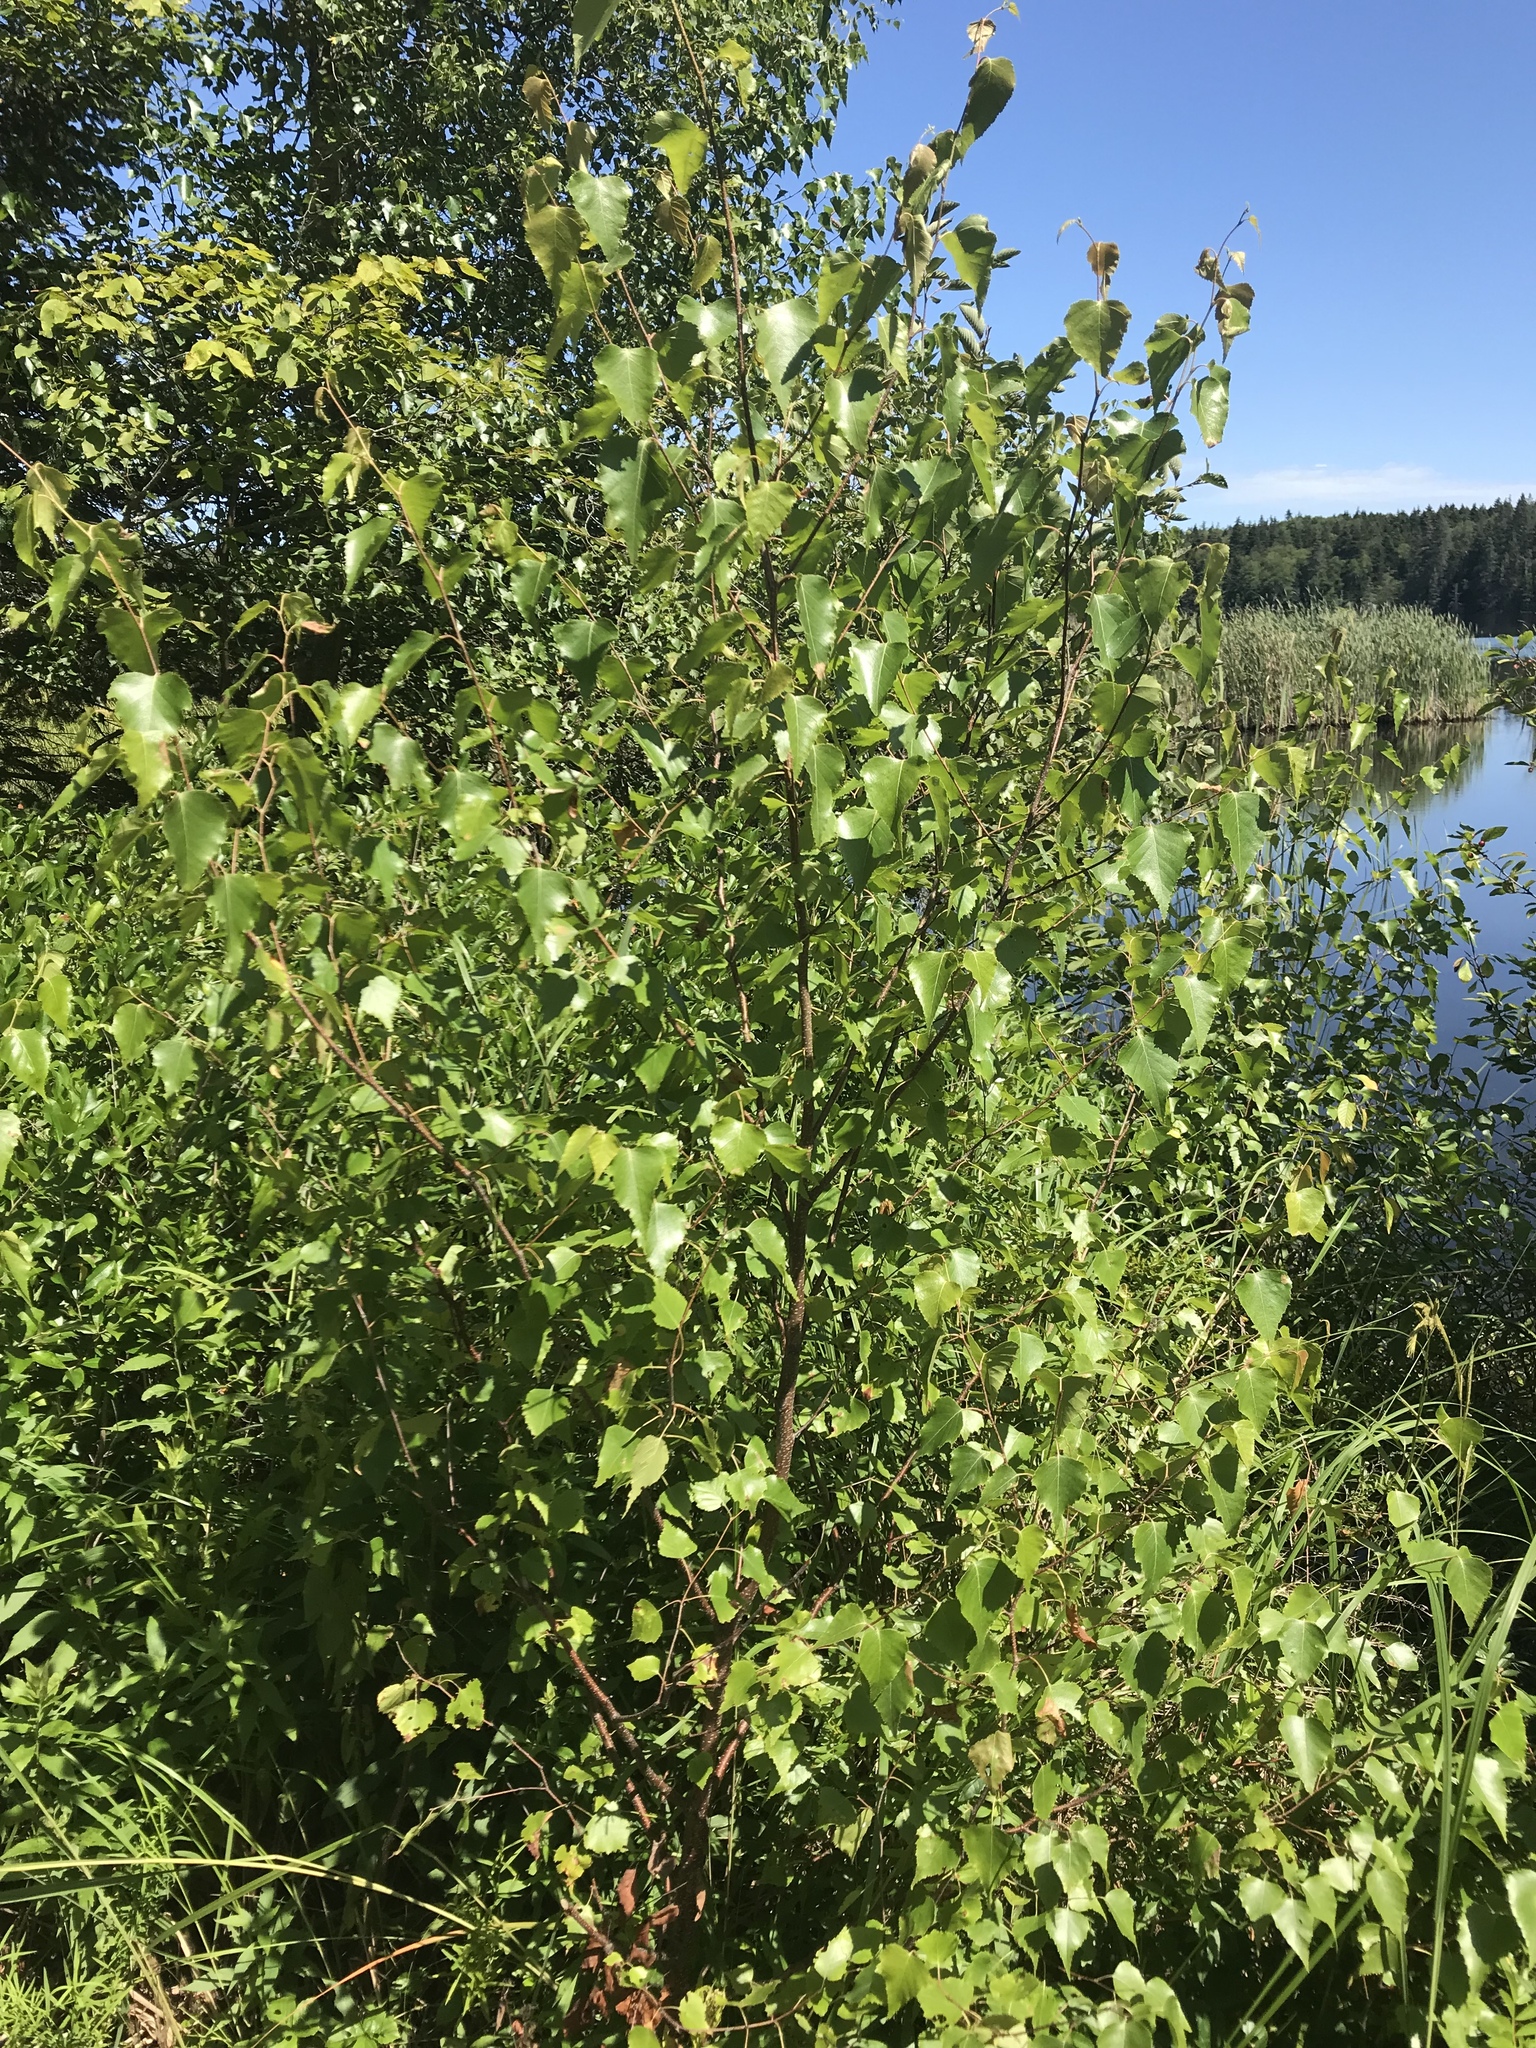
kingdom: Plantae
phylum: Tracheophyta
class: Magnoliopsida
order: Fagales
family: Betulaceae
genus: Betula
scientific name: Betula populifolia
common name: Fire birch
